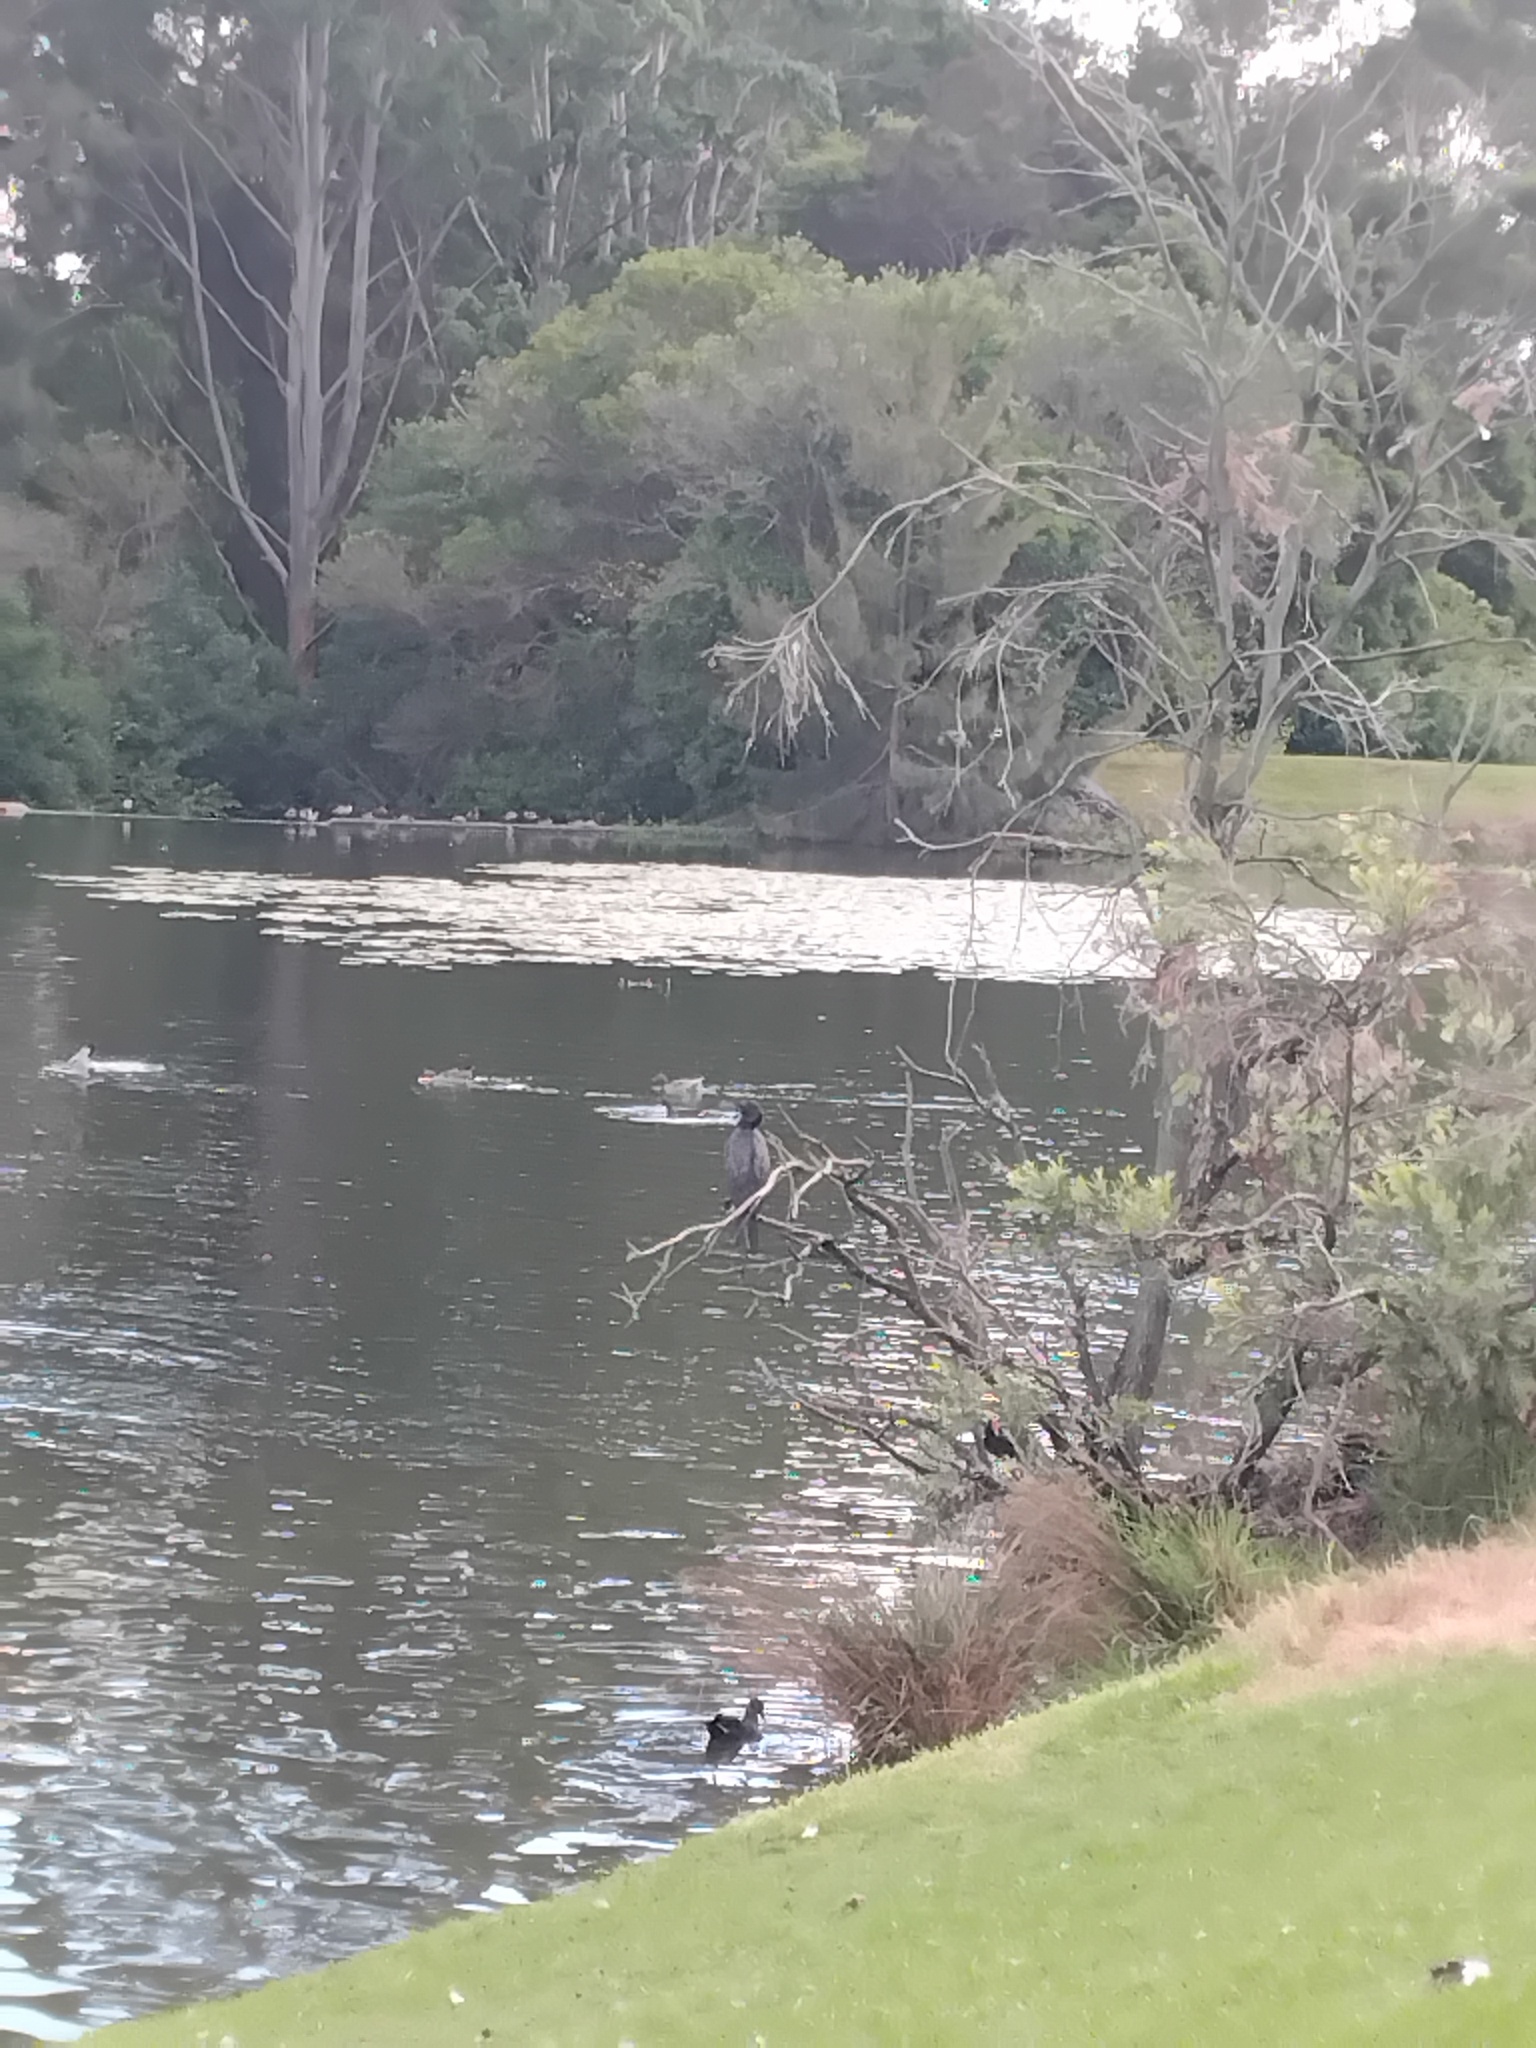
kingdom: Animalia
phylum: Chordata
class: Aves
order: Suliformes
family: Phalacrocoracidae
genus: Phalacrocorax
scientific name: Phalacrocorax sulcirostris
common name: Little black cormorant
